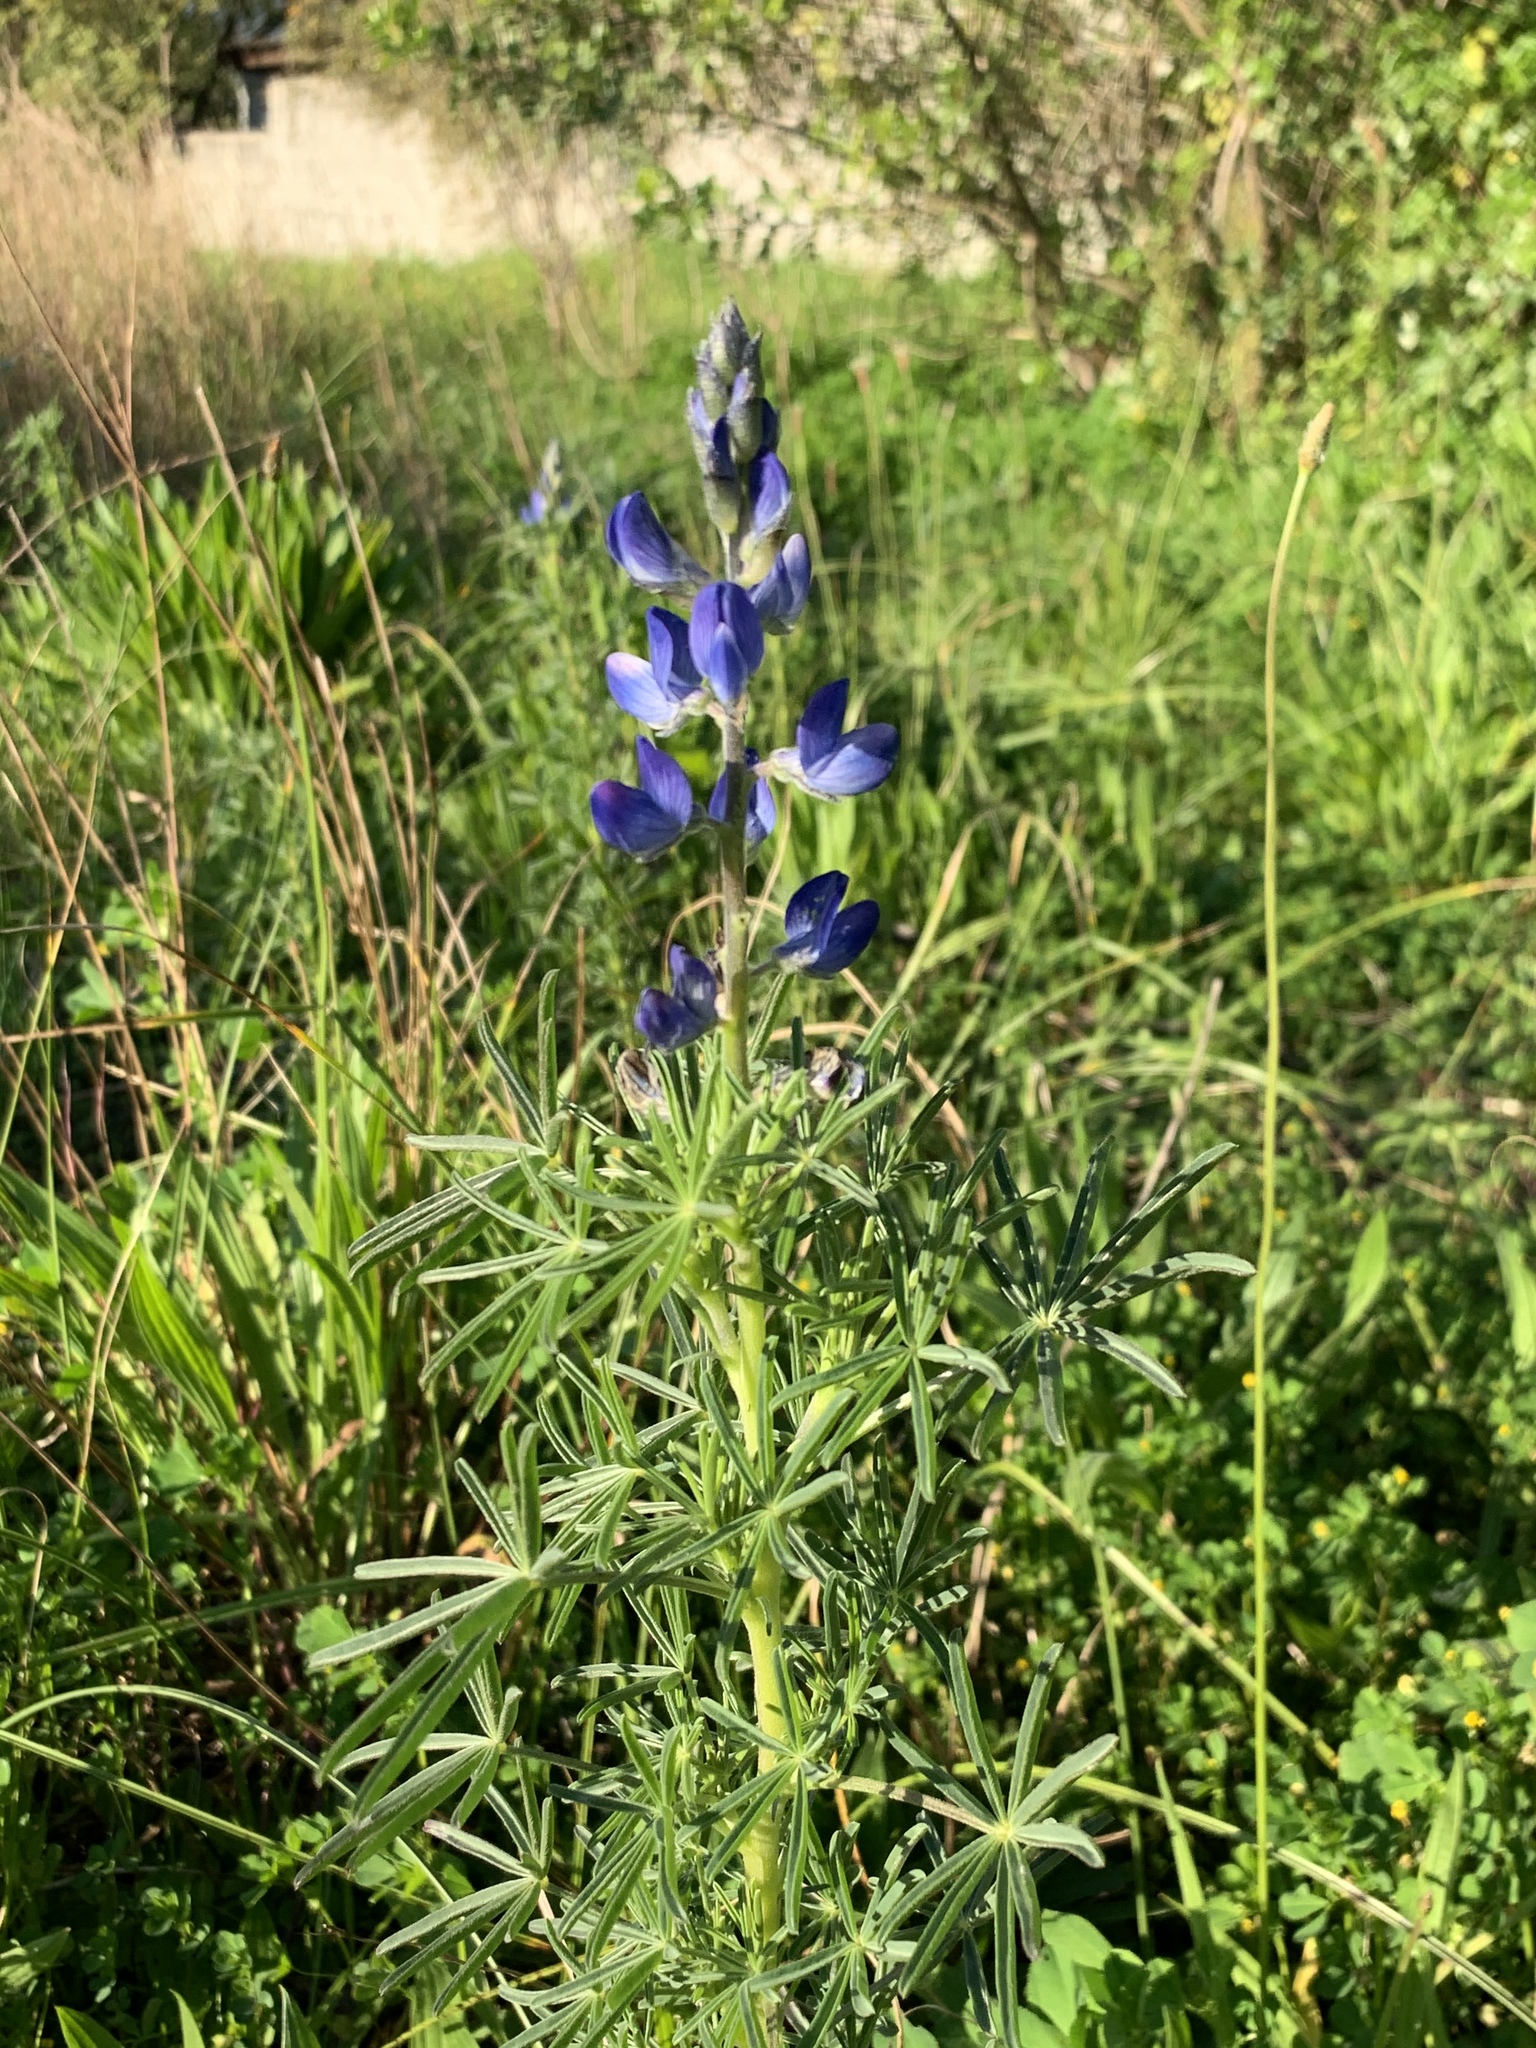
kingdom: Plantae
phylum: Tracheophyta
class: Magnoliopsida
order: Fabales
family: Fabaceae
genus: Lupinus
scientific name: Lupinus angustifolius
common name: Narrow-leaved lupin
